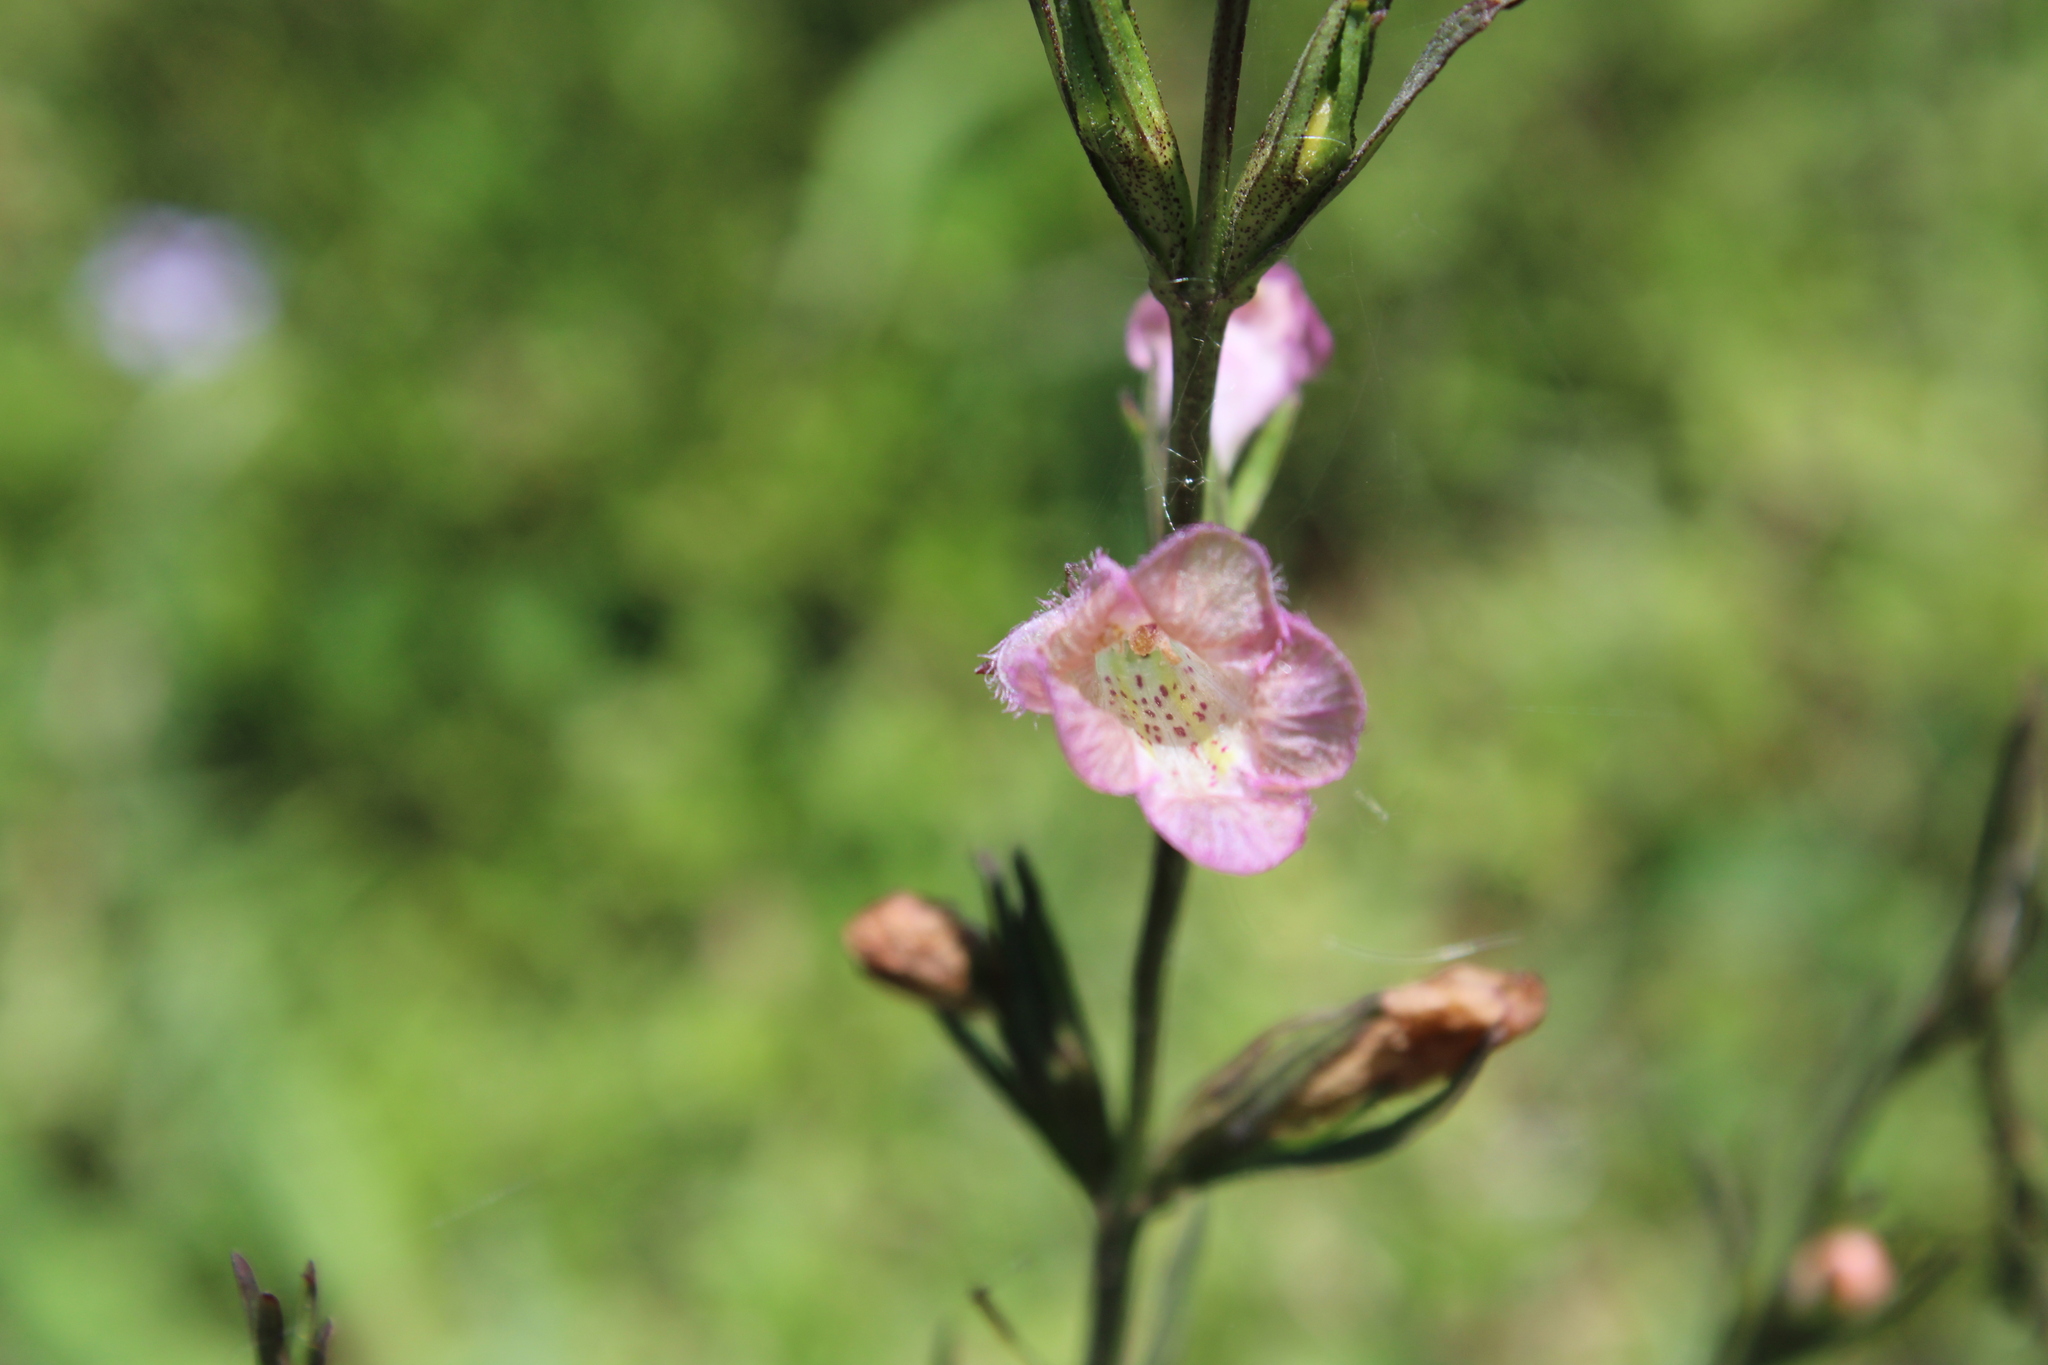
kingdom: Plantae
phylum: Tracheophyta
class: Magnoliopsida
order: Lamiales
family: Orobanchaceae
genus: Agalinis
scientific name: Agalinis communis
